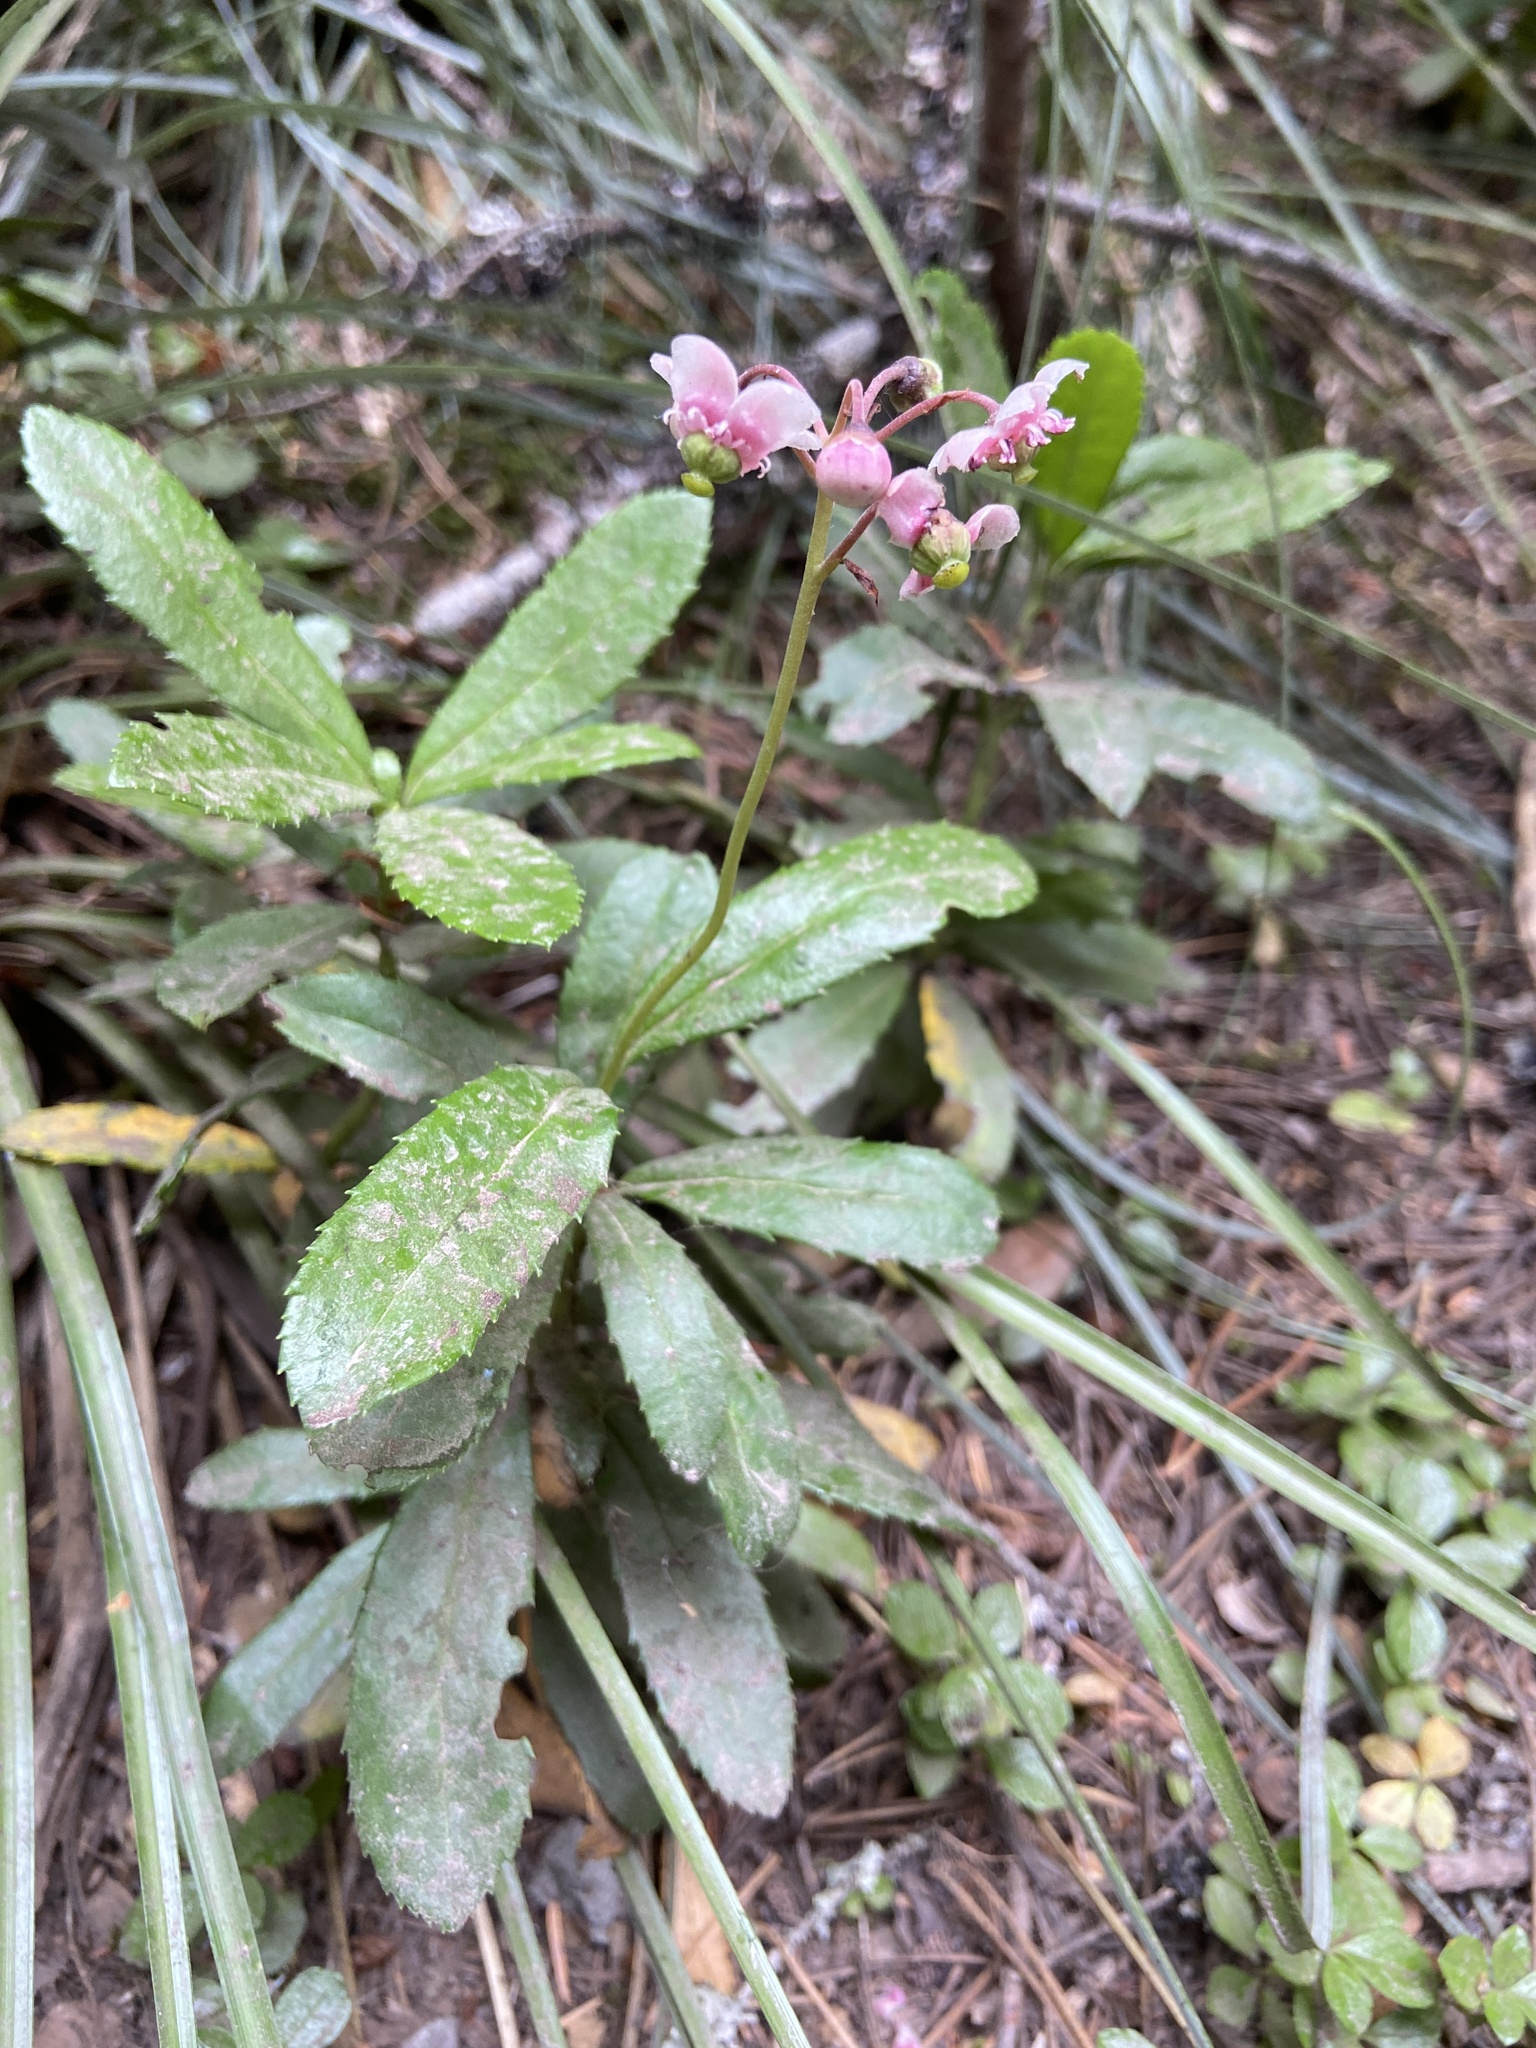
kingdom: Plantae
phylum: Tracheophyta
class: Magnoliopsida
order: Ericales
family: Ericaceae
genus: Chimaphila
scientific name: Chimaphila umbellata
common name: Pipsissewa
